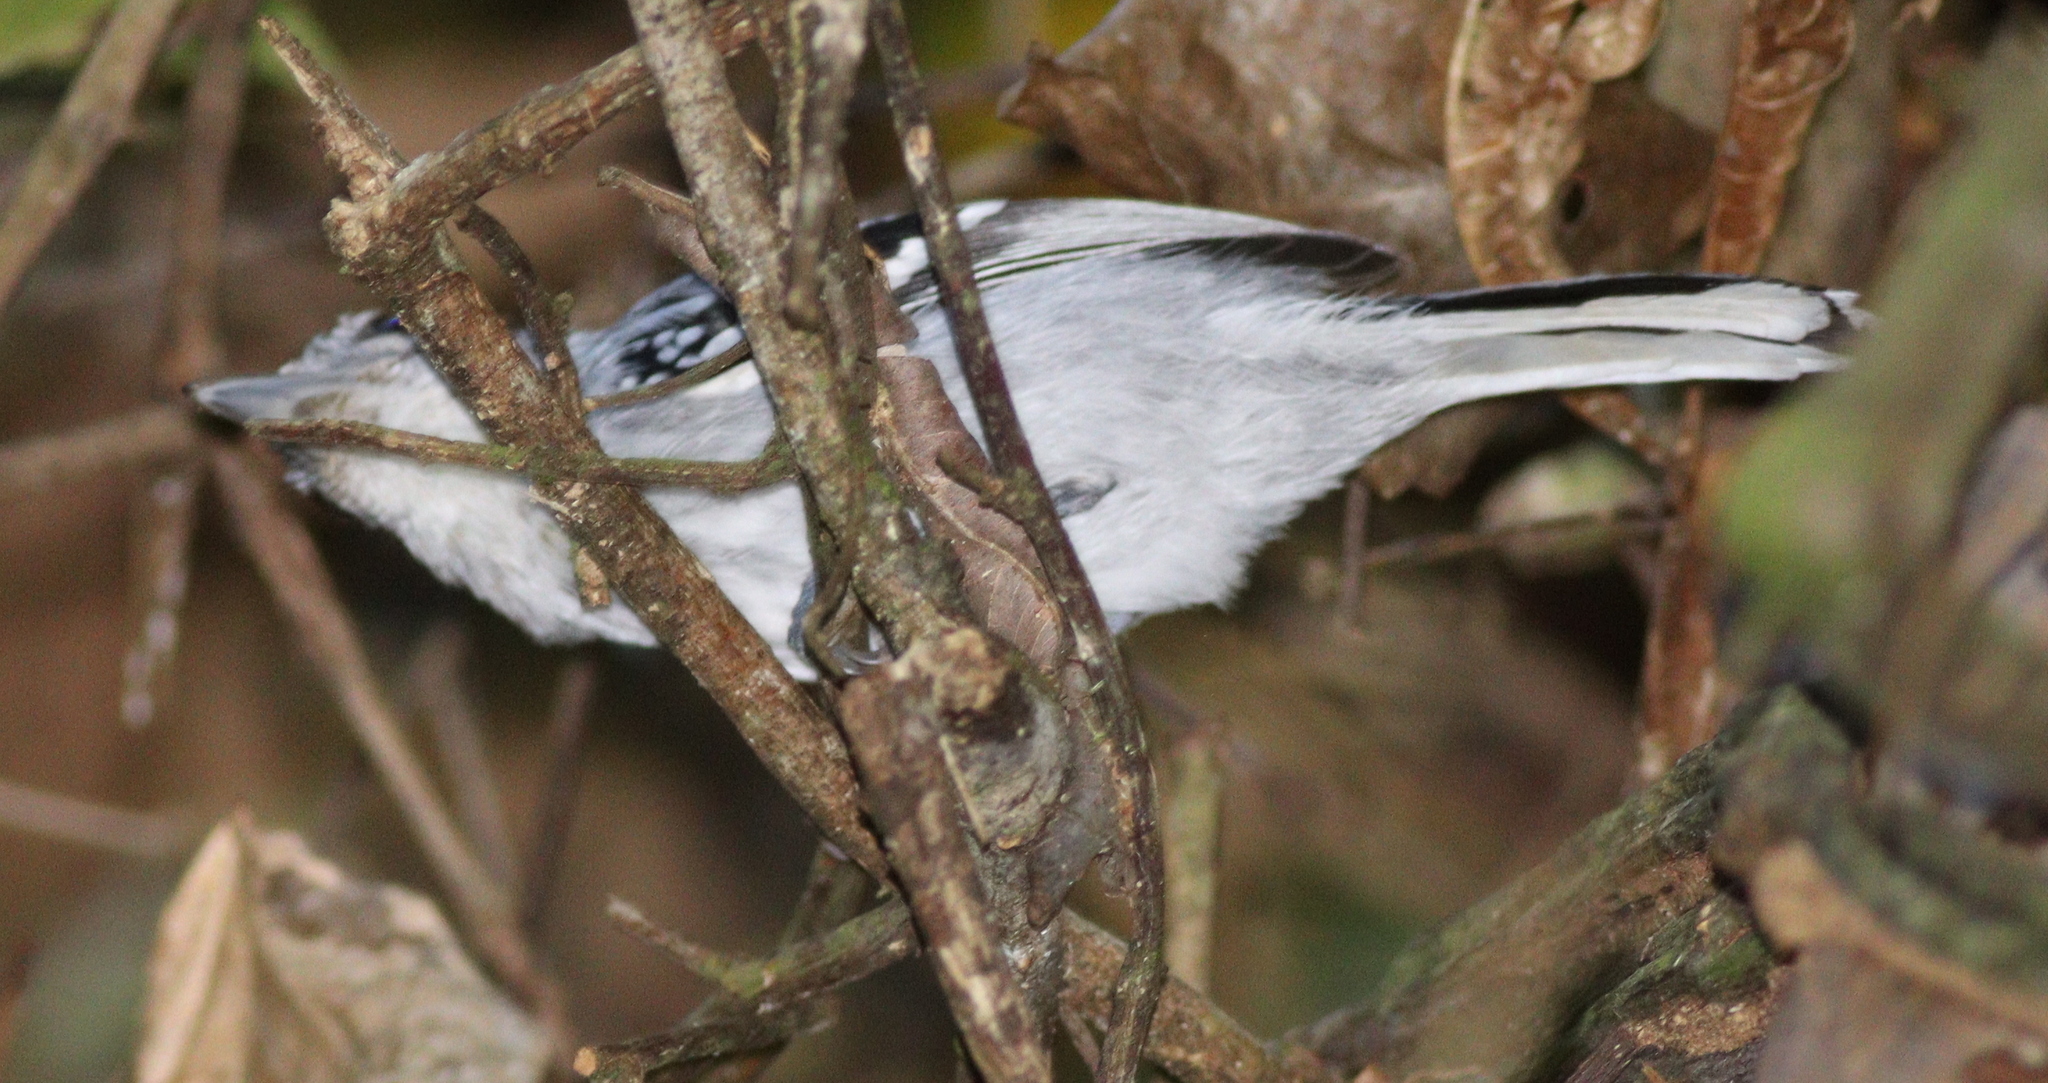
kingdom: Animalia
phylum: Chordata
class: Aves
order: Passeriformes
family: Thamnophilidae
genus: Herpsilochmus
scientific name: Herpsilochmus longirostris
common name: Large-billed antwren
